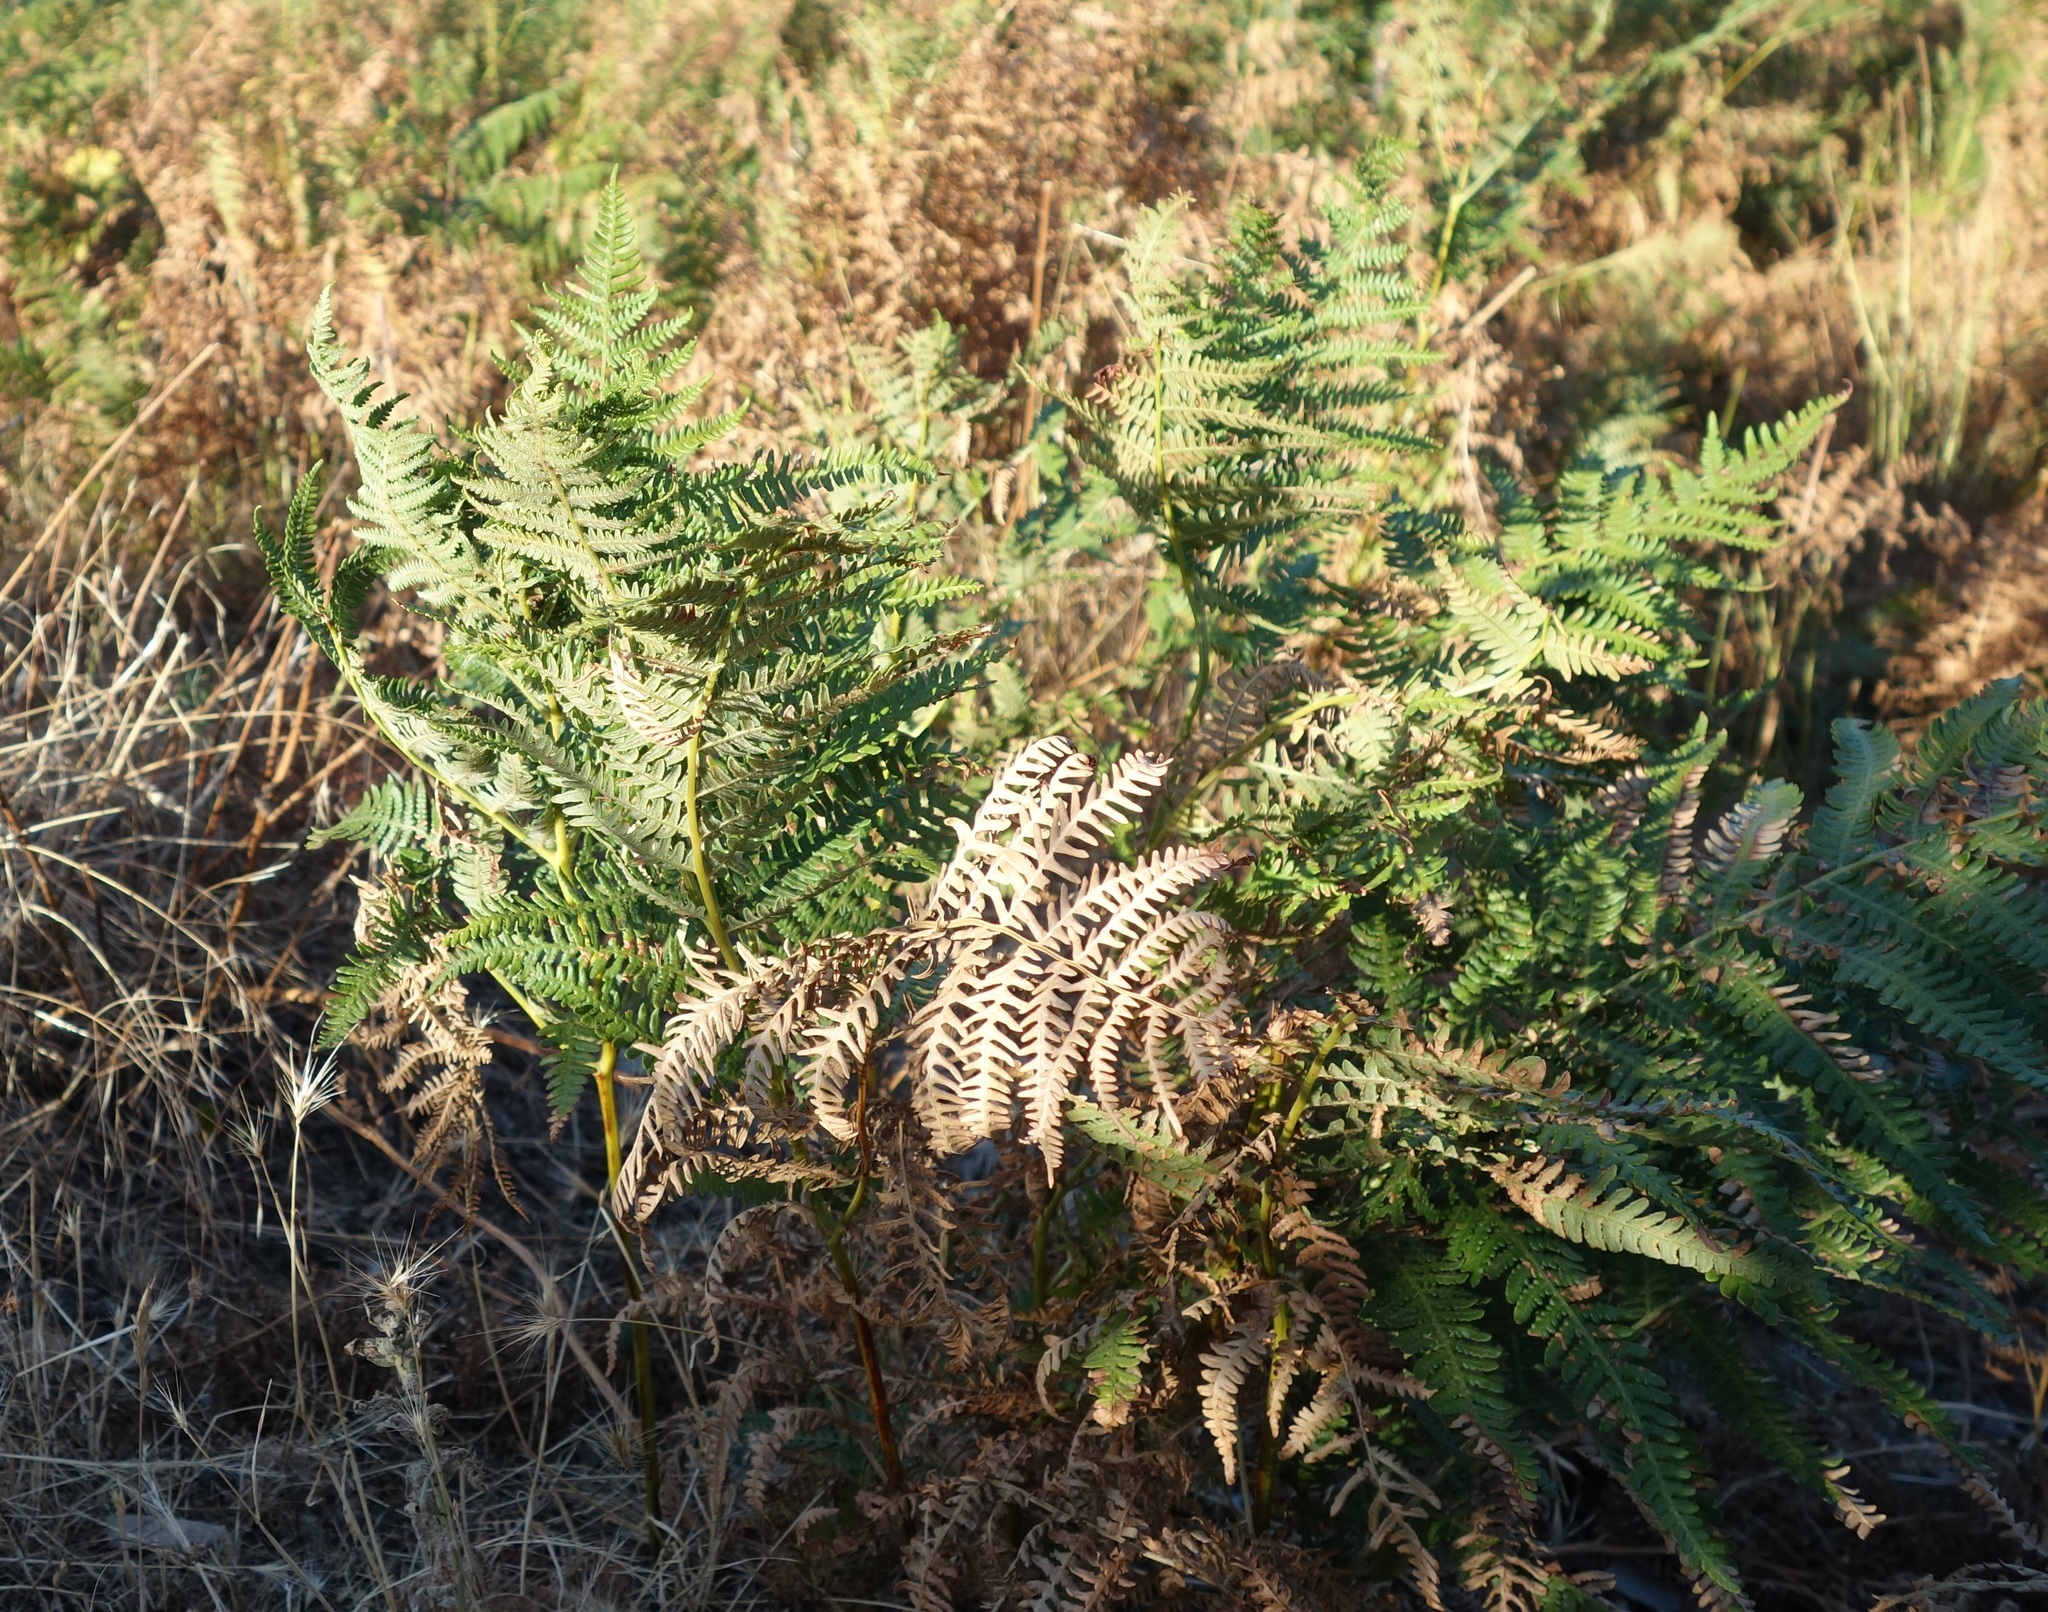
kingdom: Plantae
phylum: Tracheophyta
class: Polypodiopsida
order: Polypodiales
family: Dennstaedtiaceae
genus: Pteridium
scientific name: Pteridium aquilinum
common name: Bracken
